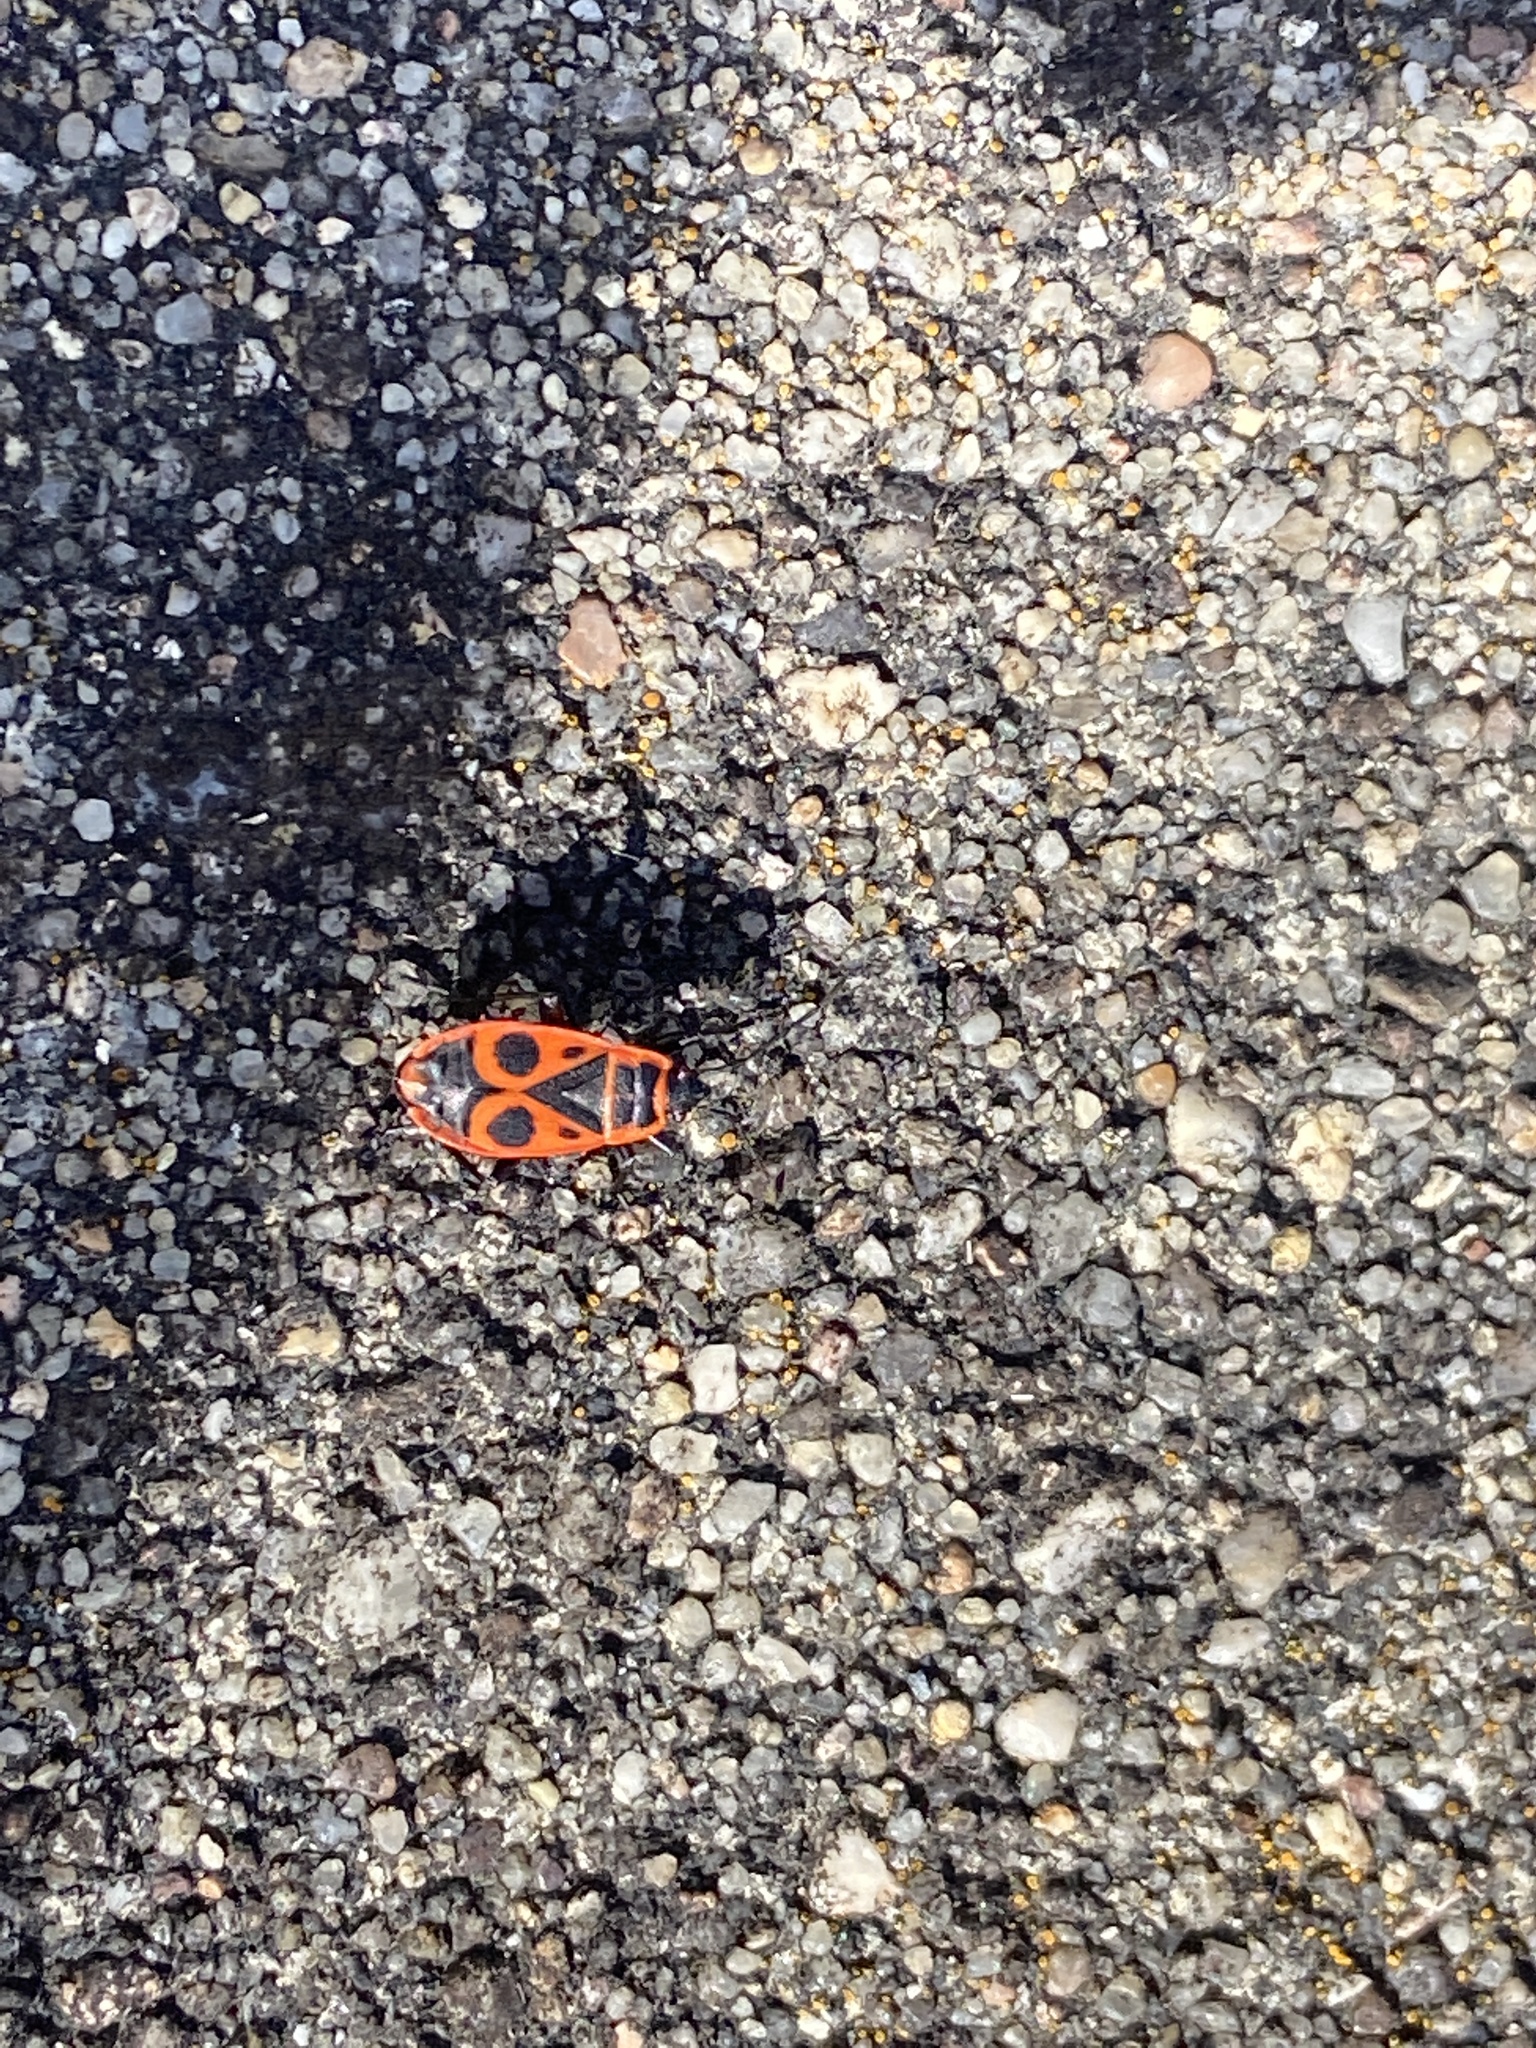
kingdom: Animalia
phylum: Arthropoda
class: Insecta
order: Hemiptera
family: Pyrrhocoridae
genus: Pyrrhocoris
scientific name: Pyrrhocoris apterus
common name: Firebug
